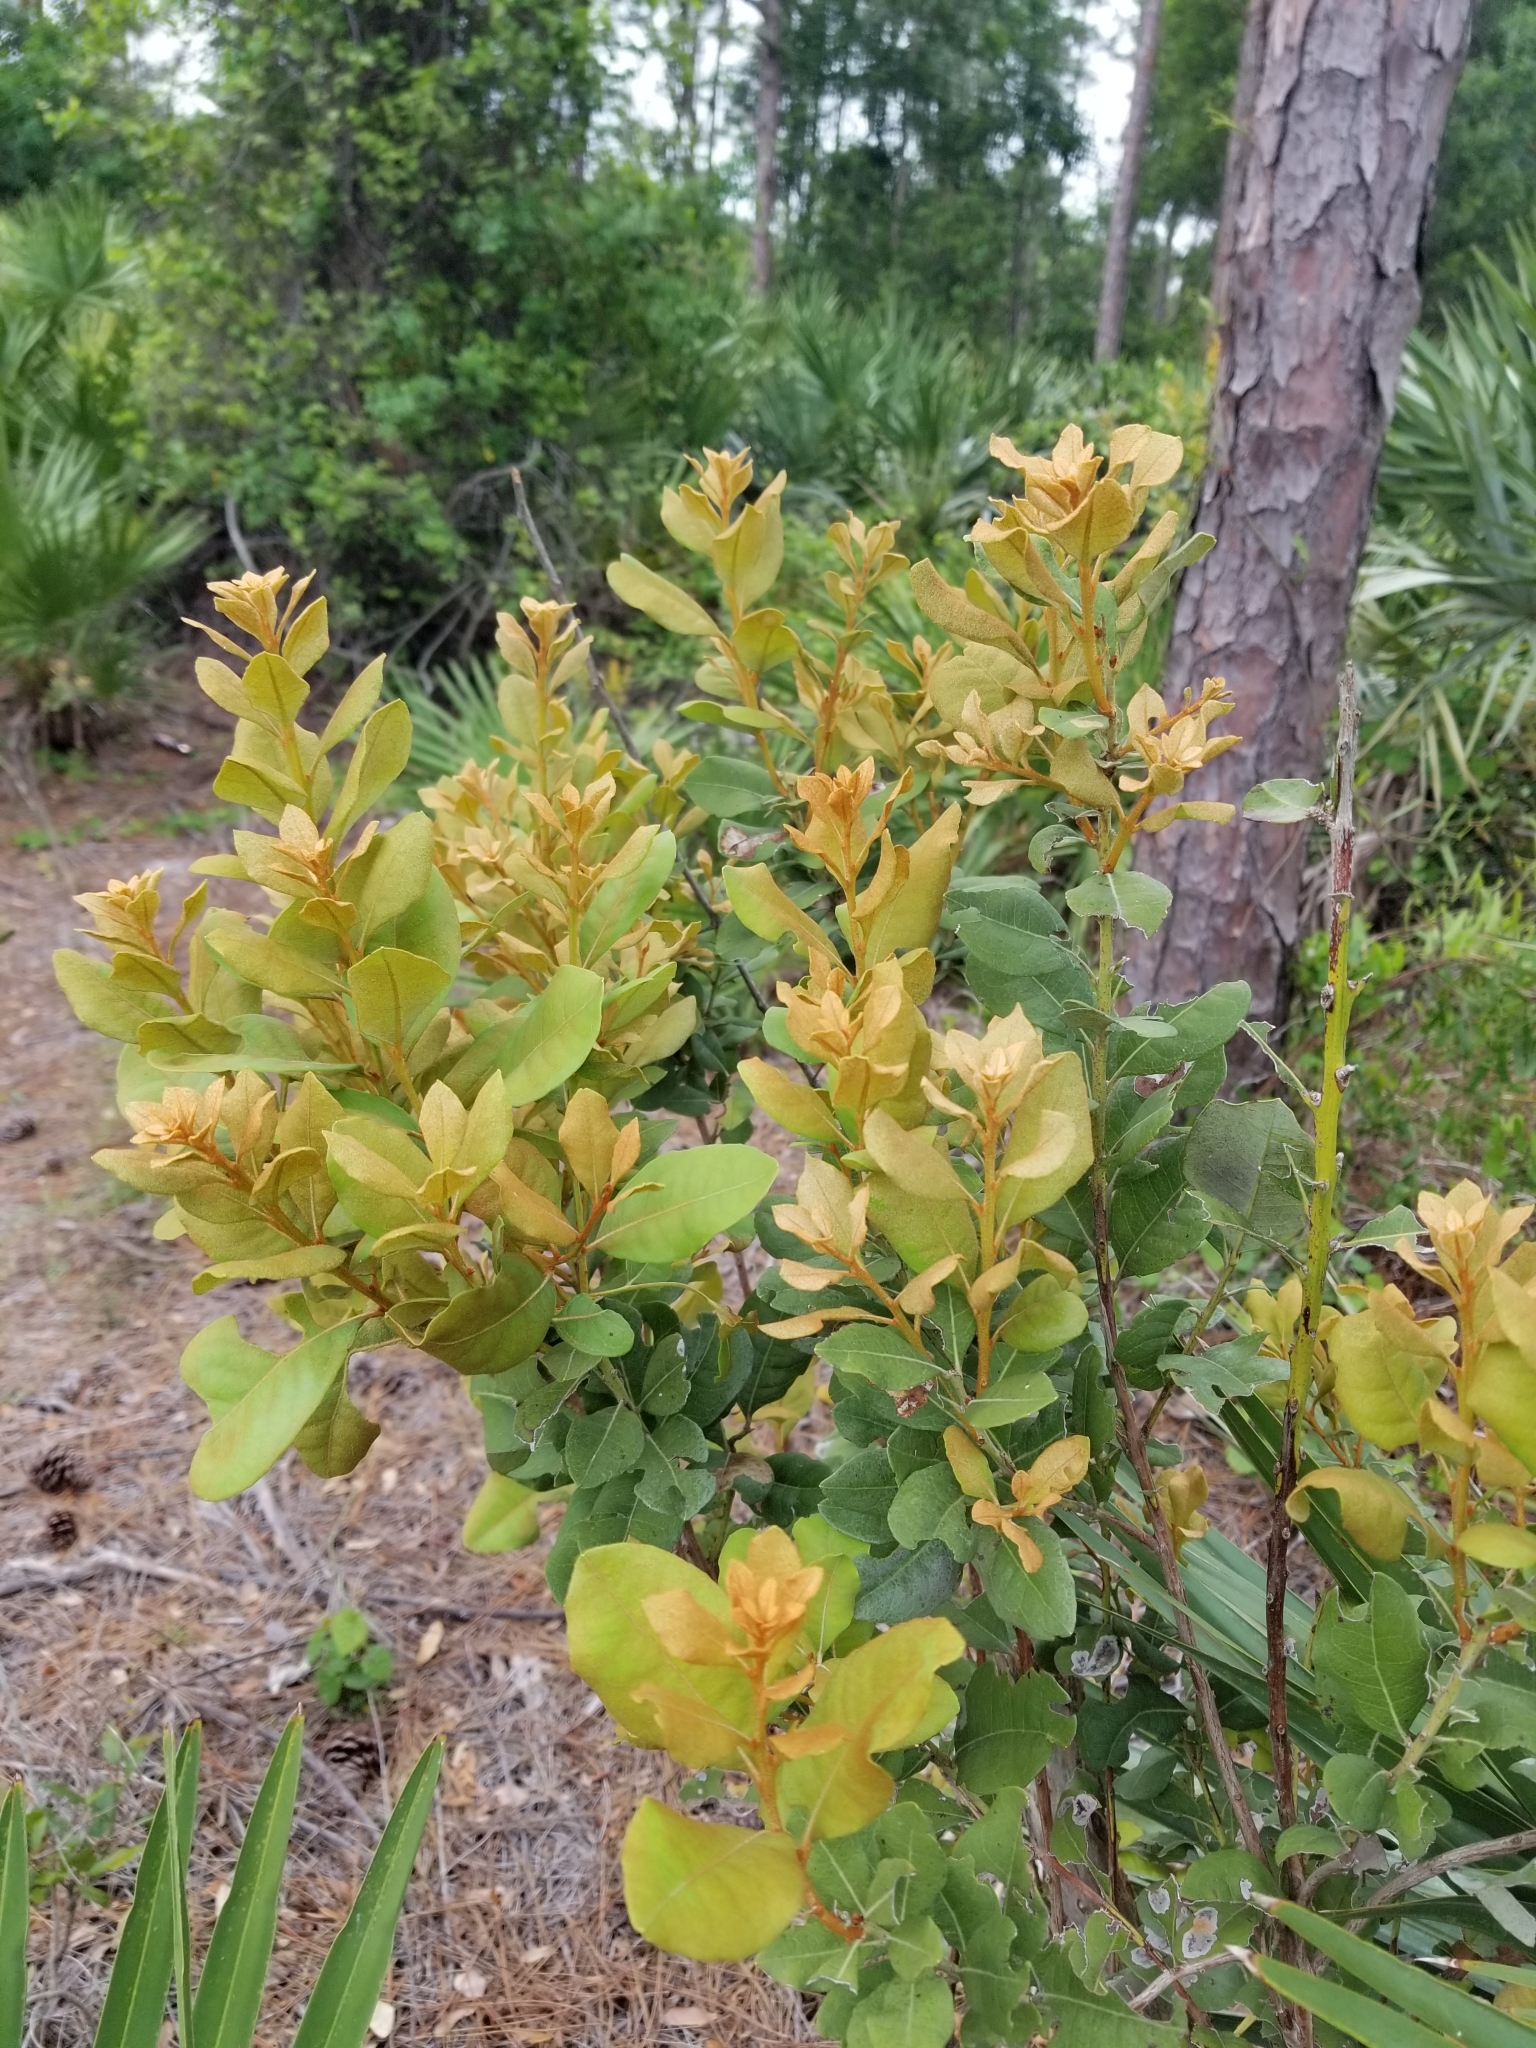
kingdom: Plantae
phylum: Tracheophyta
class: Magnoliopsida
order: Ericales
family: Ericaceae
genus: Lyonia
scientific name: Lyonia fruticosa
